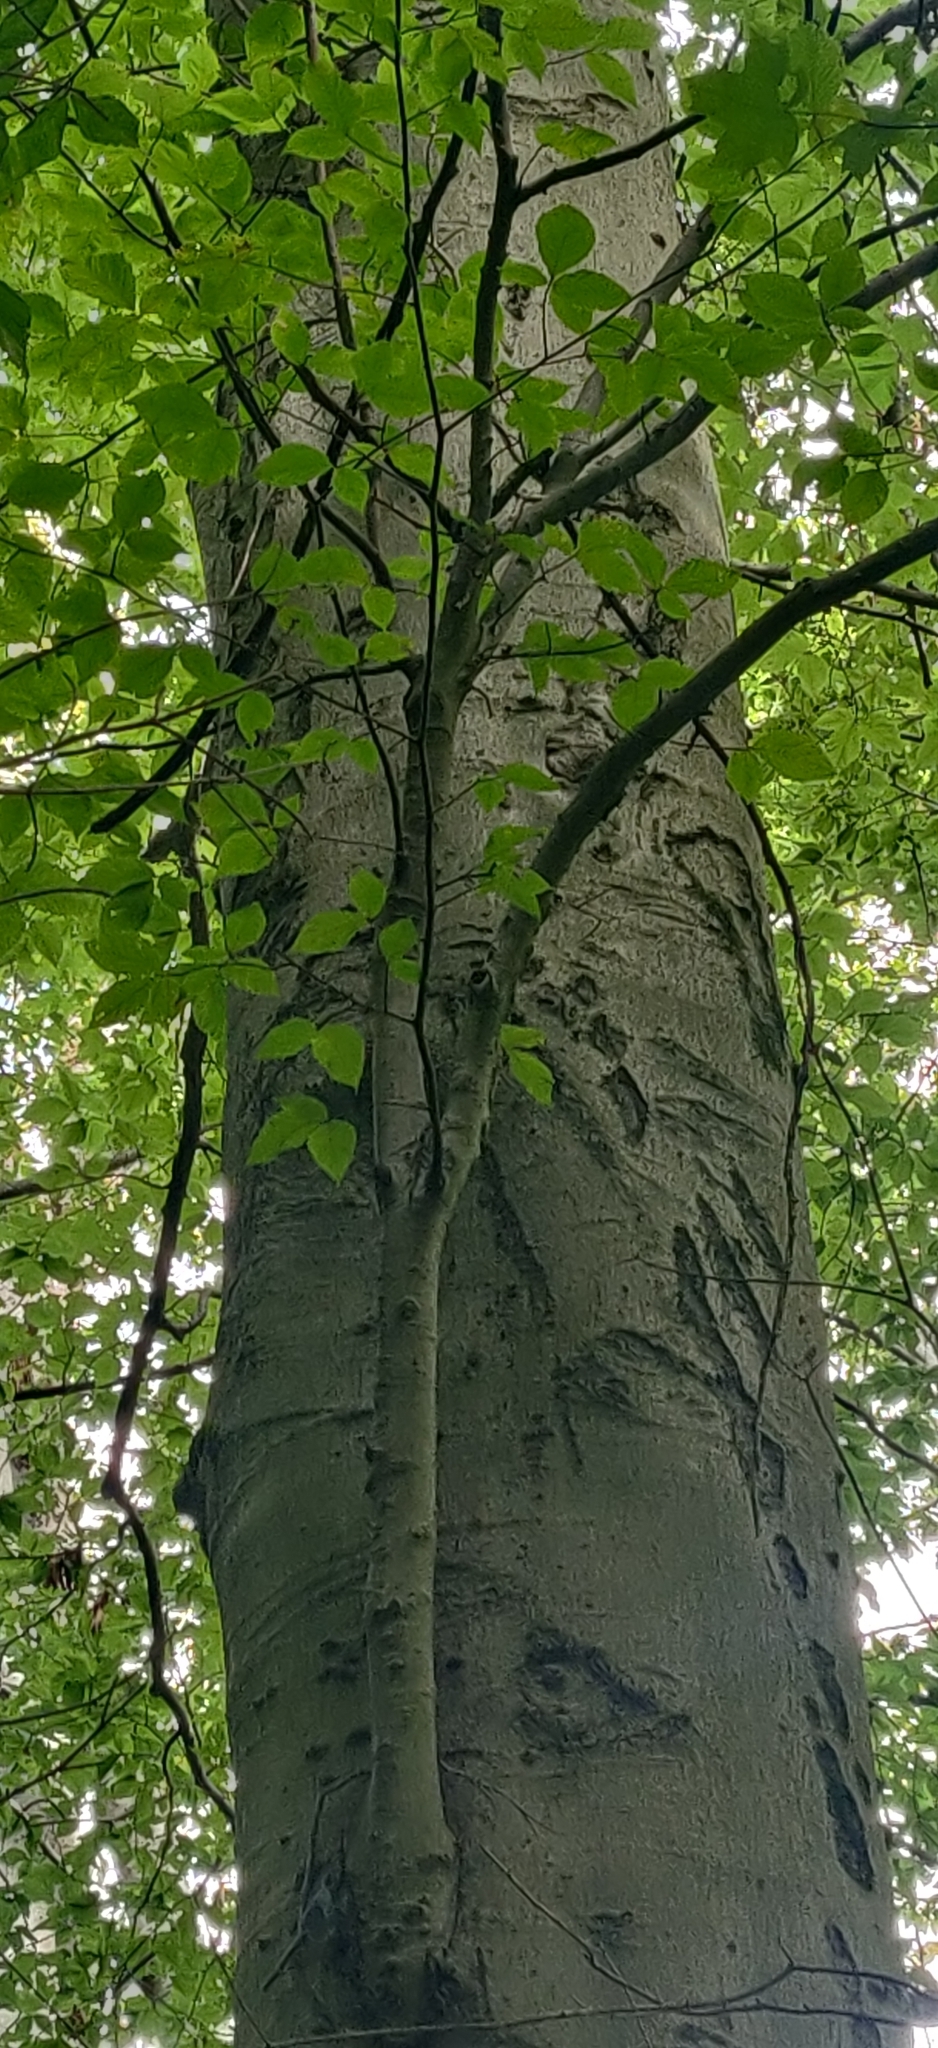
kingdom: Plantae
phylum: Tracheophyta
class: Magnoliopsida
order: Fagales
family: Fagaceae
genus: Fagus
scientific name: Fagus grandifolia
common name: American beech
